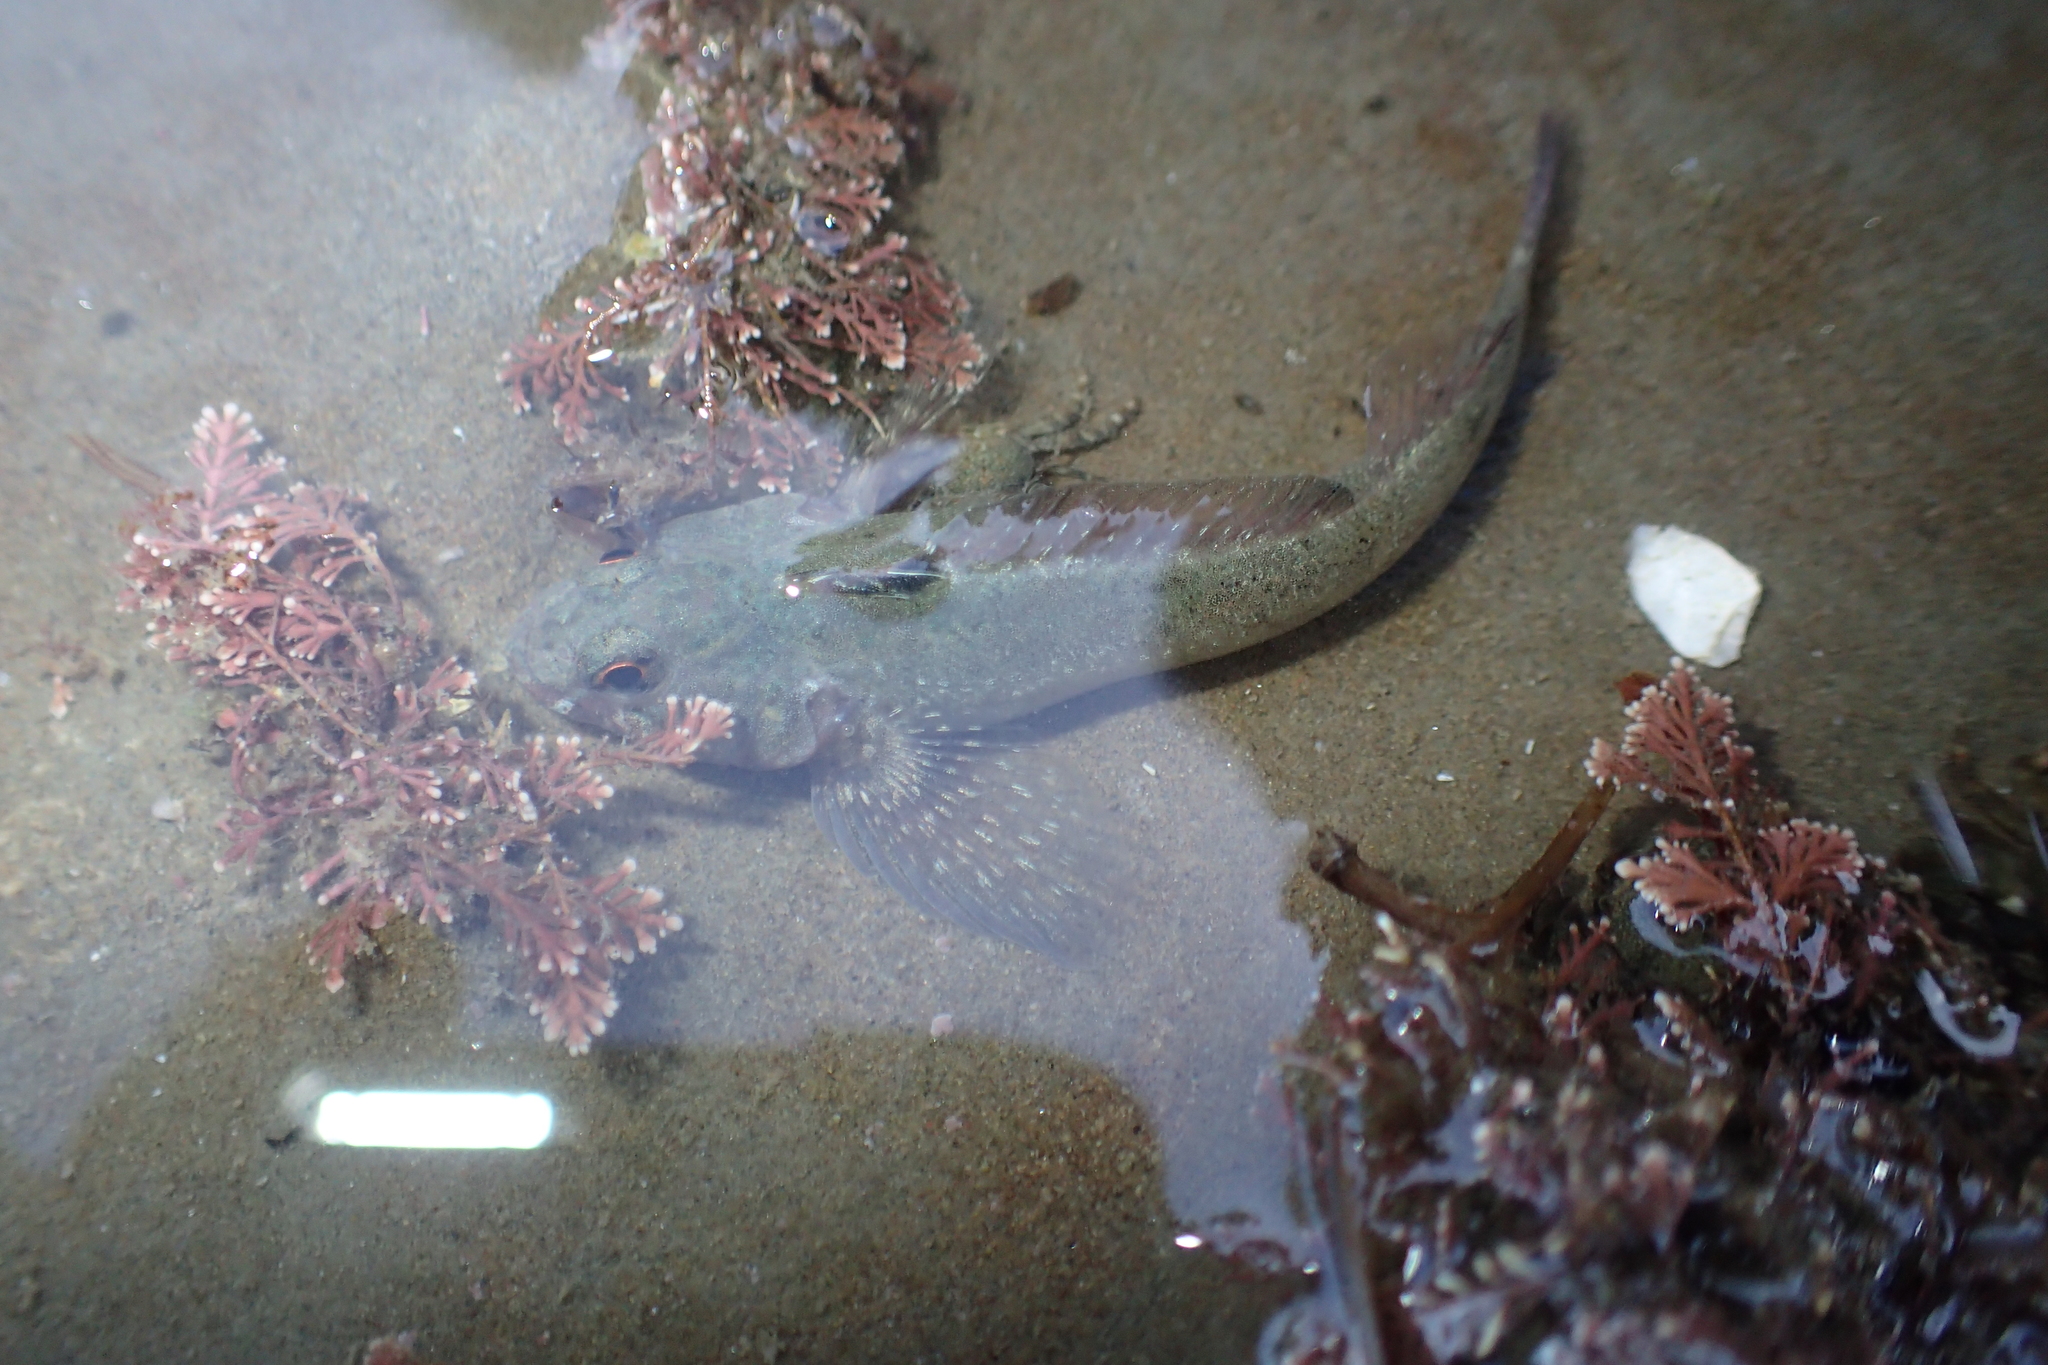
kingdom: Animalia
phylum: Chordata
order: Perciformes
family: Tripterygiidae
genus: Bellapiscis
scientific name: Bellapiscis medius
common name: Twister
